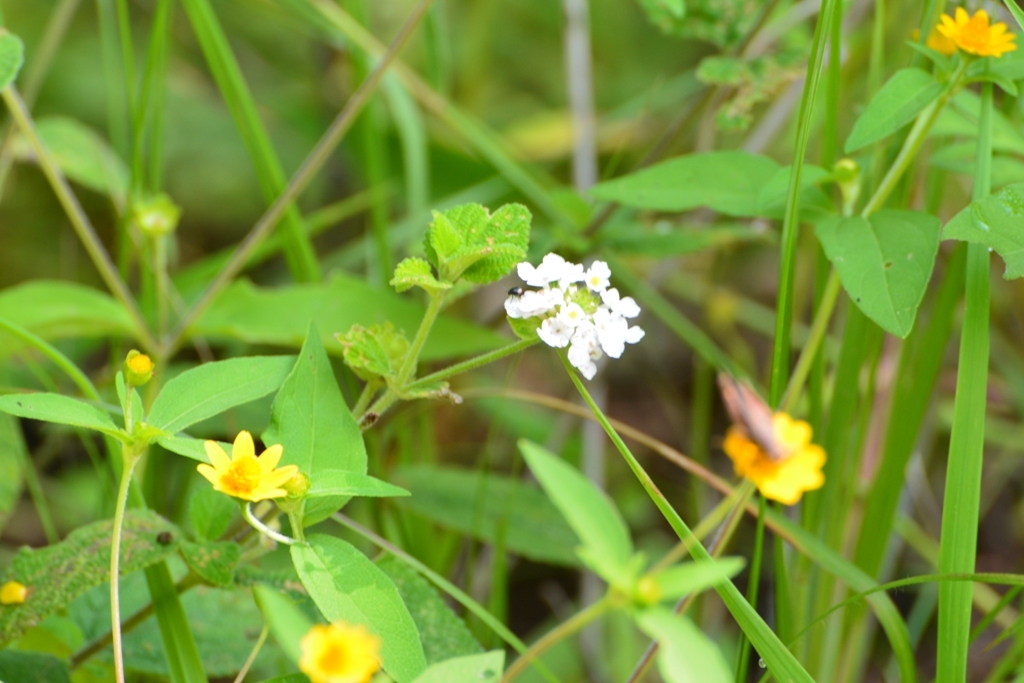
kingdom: Plantae
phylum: Tracheophyta
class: Magnoliopsida
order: Lamiales
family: Verbenaceae
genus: Lantana
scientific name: Lantana achyranthifolia
